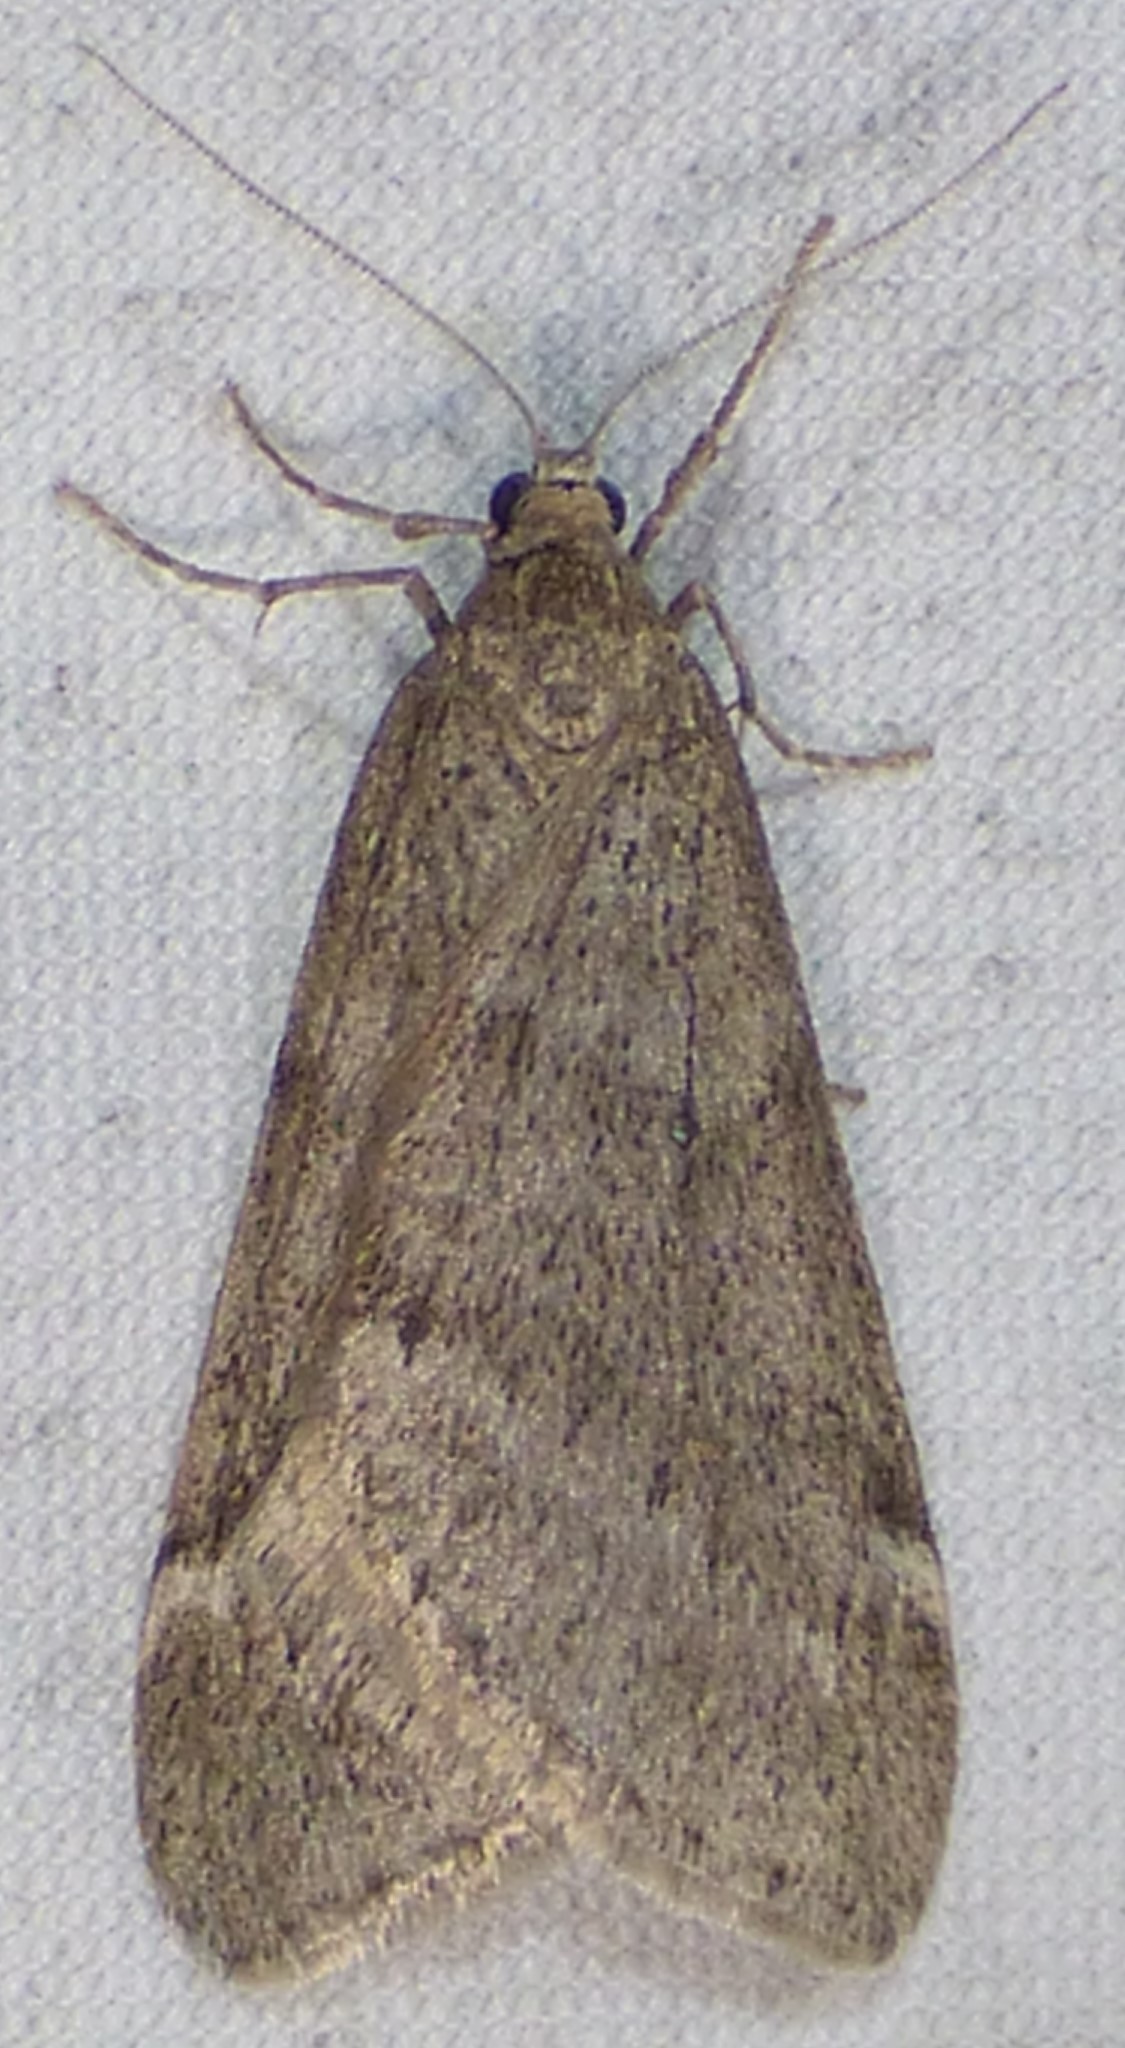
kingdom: Animalia
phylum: Arthropoda
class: Insecta
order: Lepidoptera
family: Geometridae
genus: Alsophila
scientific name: Alsophila pometaria
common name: Fall cankerworm
